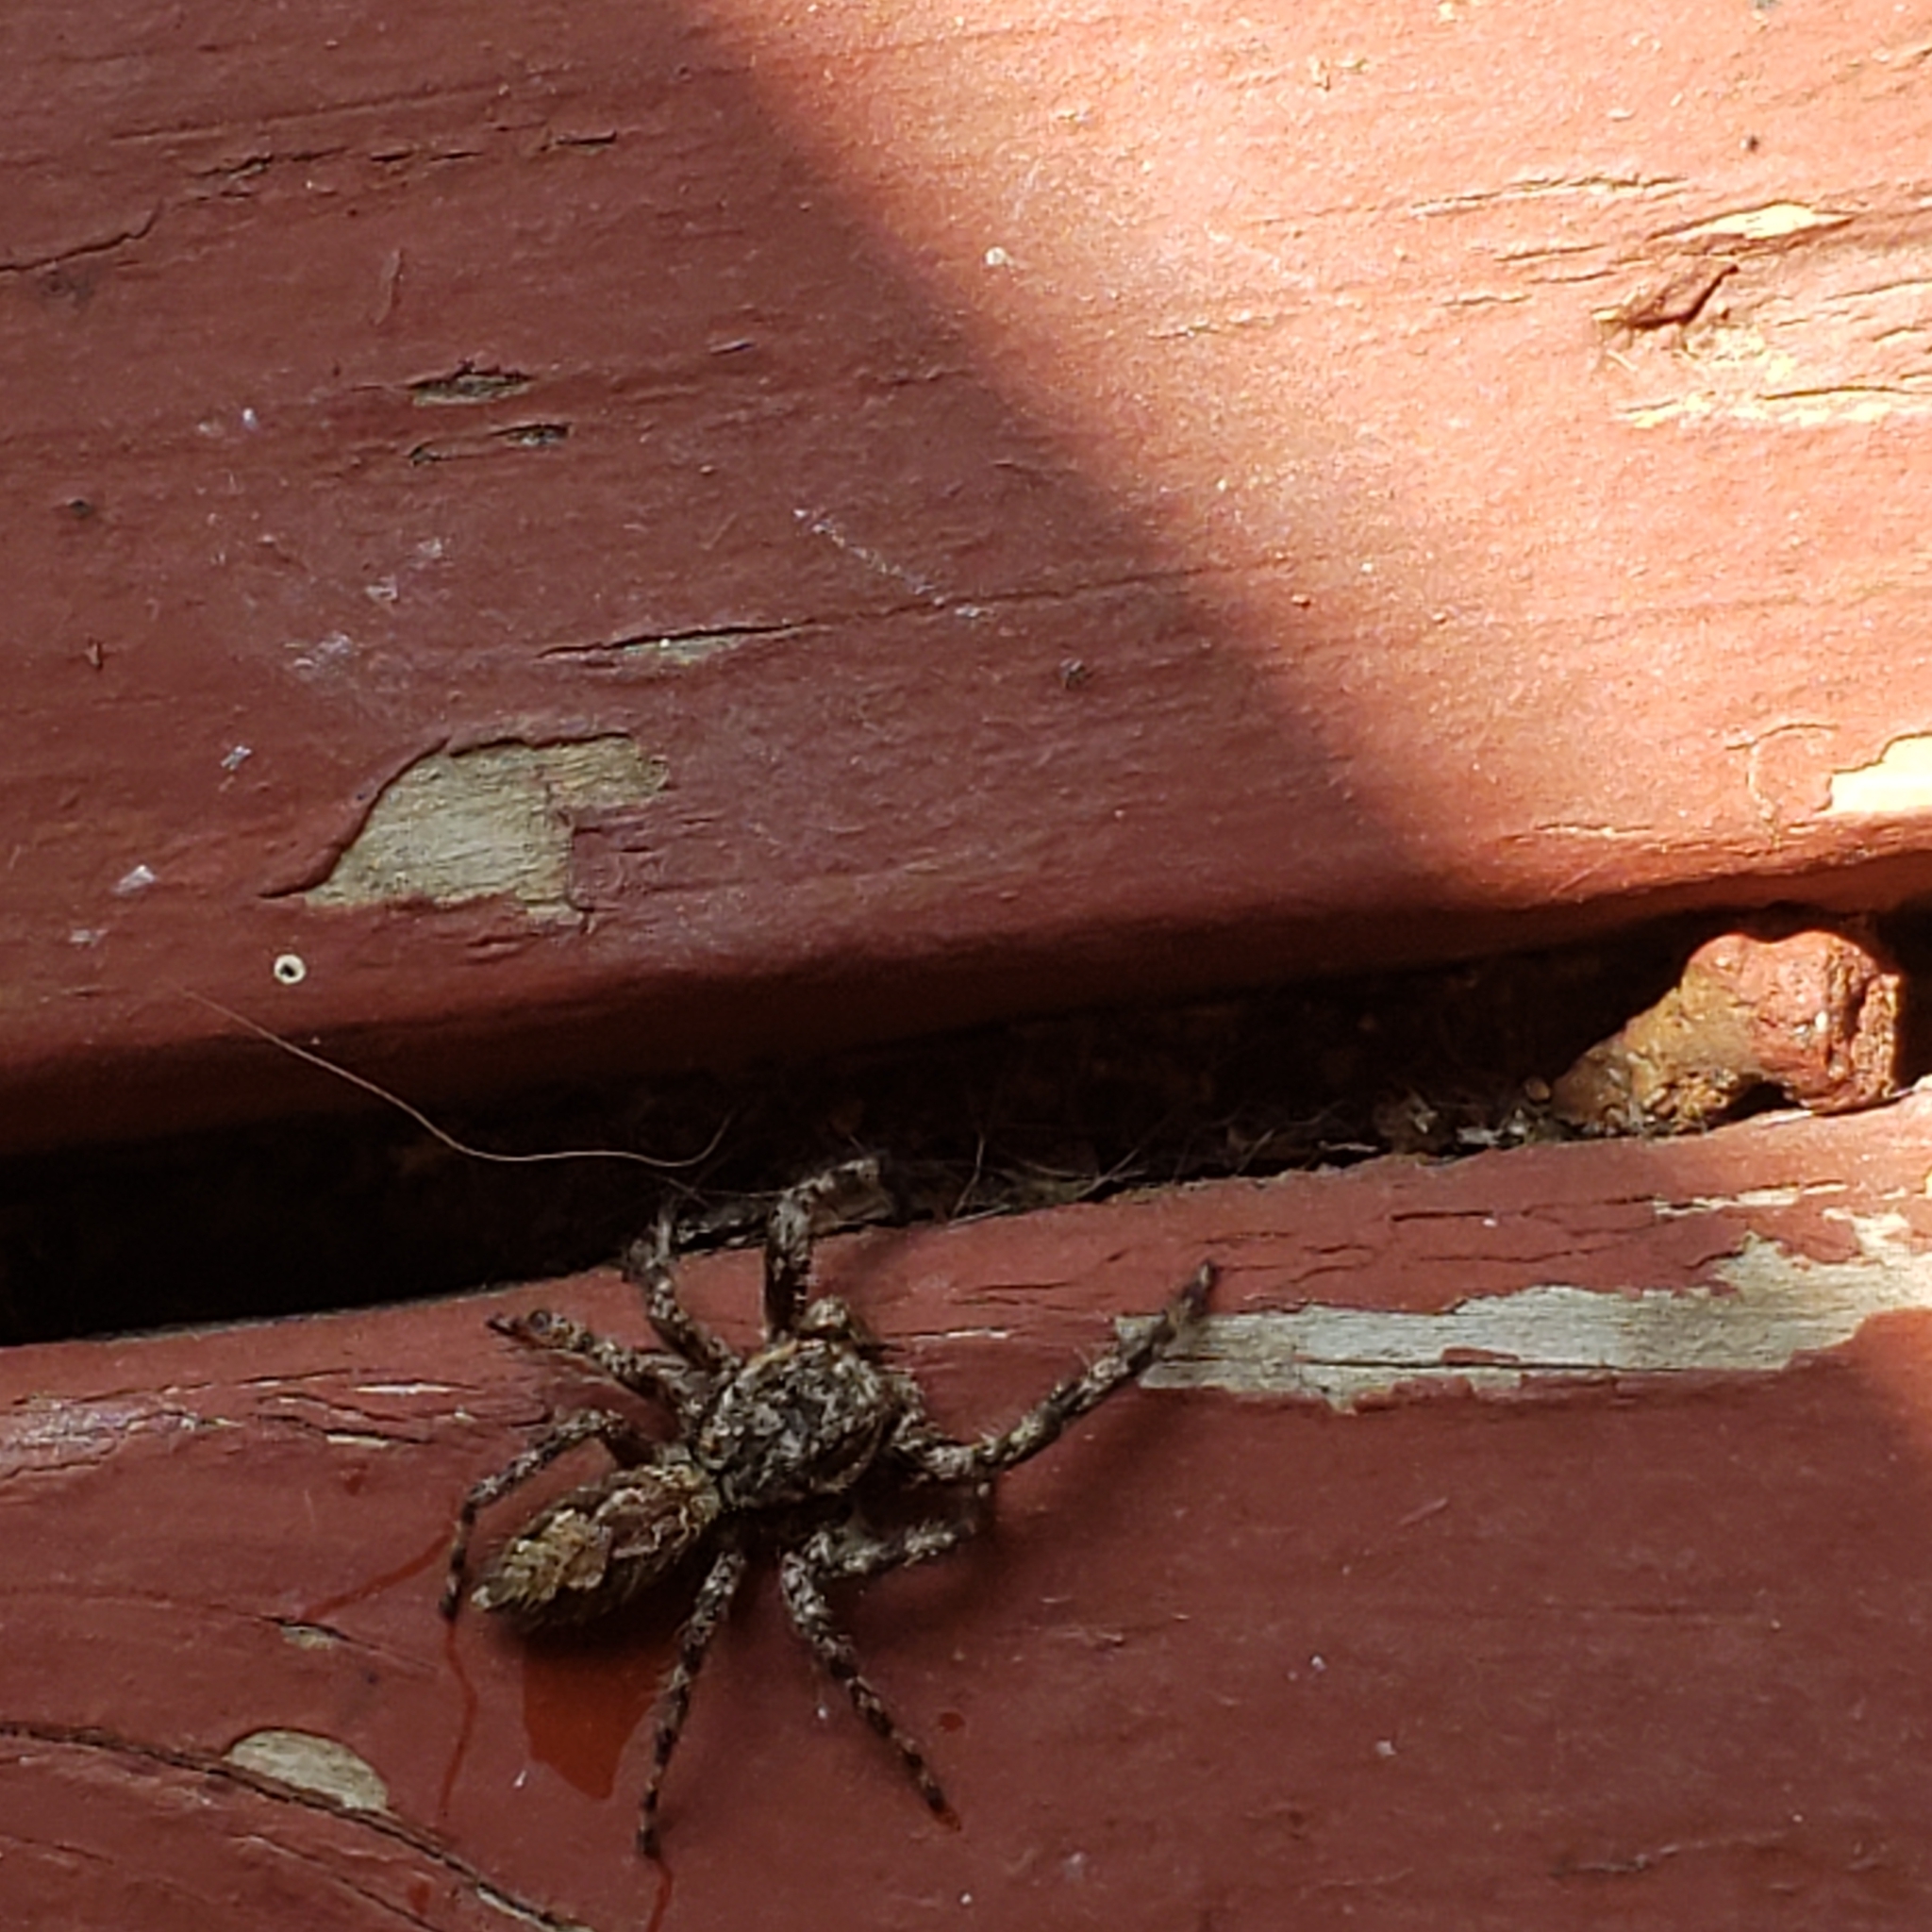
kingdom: Animalia
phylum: Arthropoda
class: Arachnida
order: Araneae
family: Salticidae
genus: Platycryptus
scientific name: Platycryptus undatus
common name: Tan jumping spider
